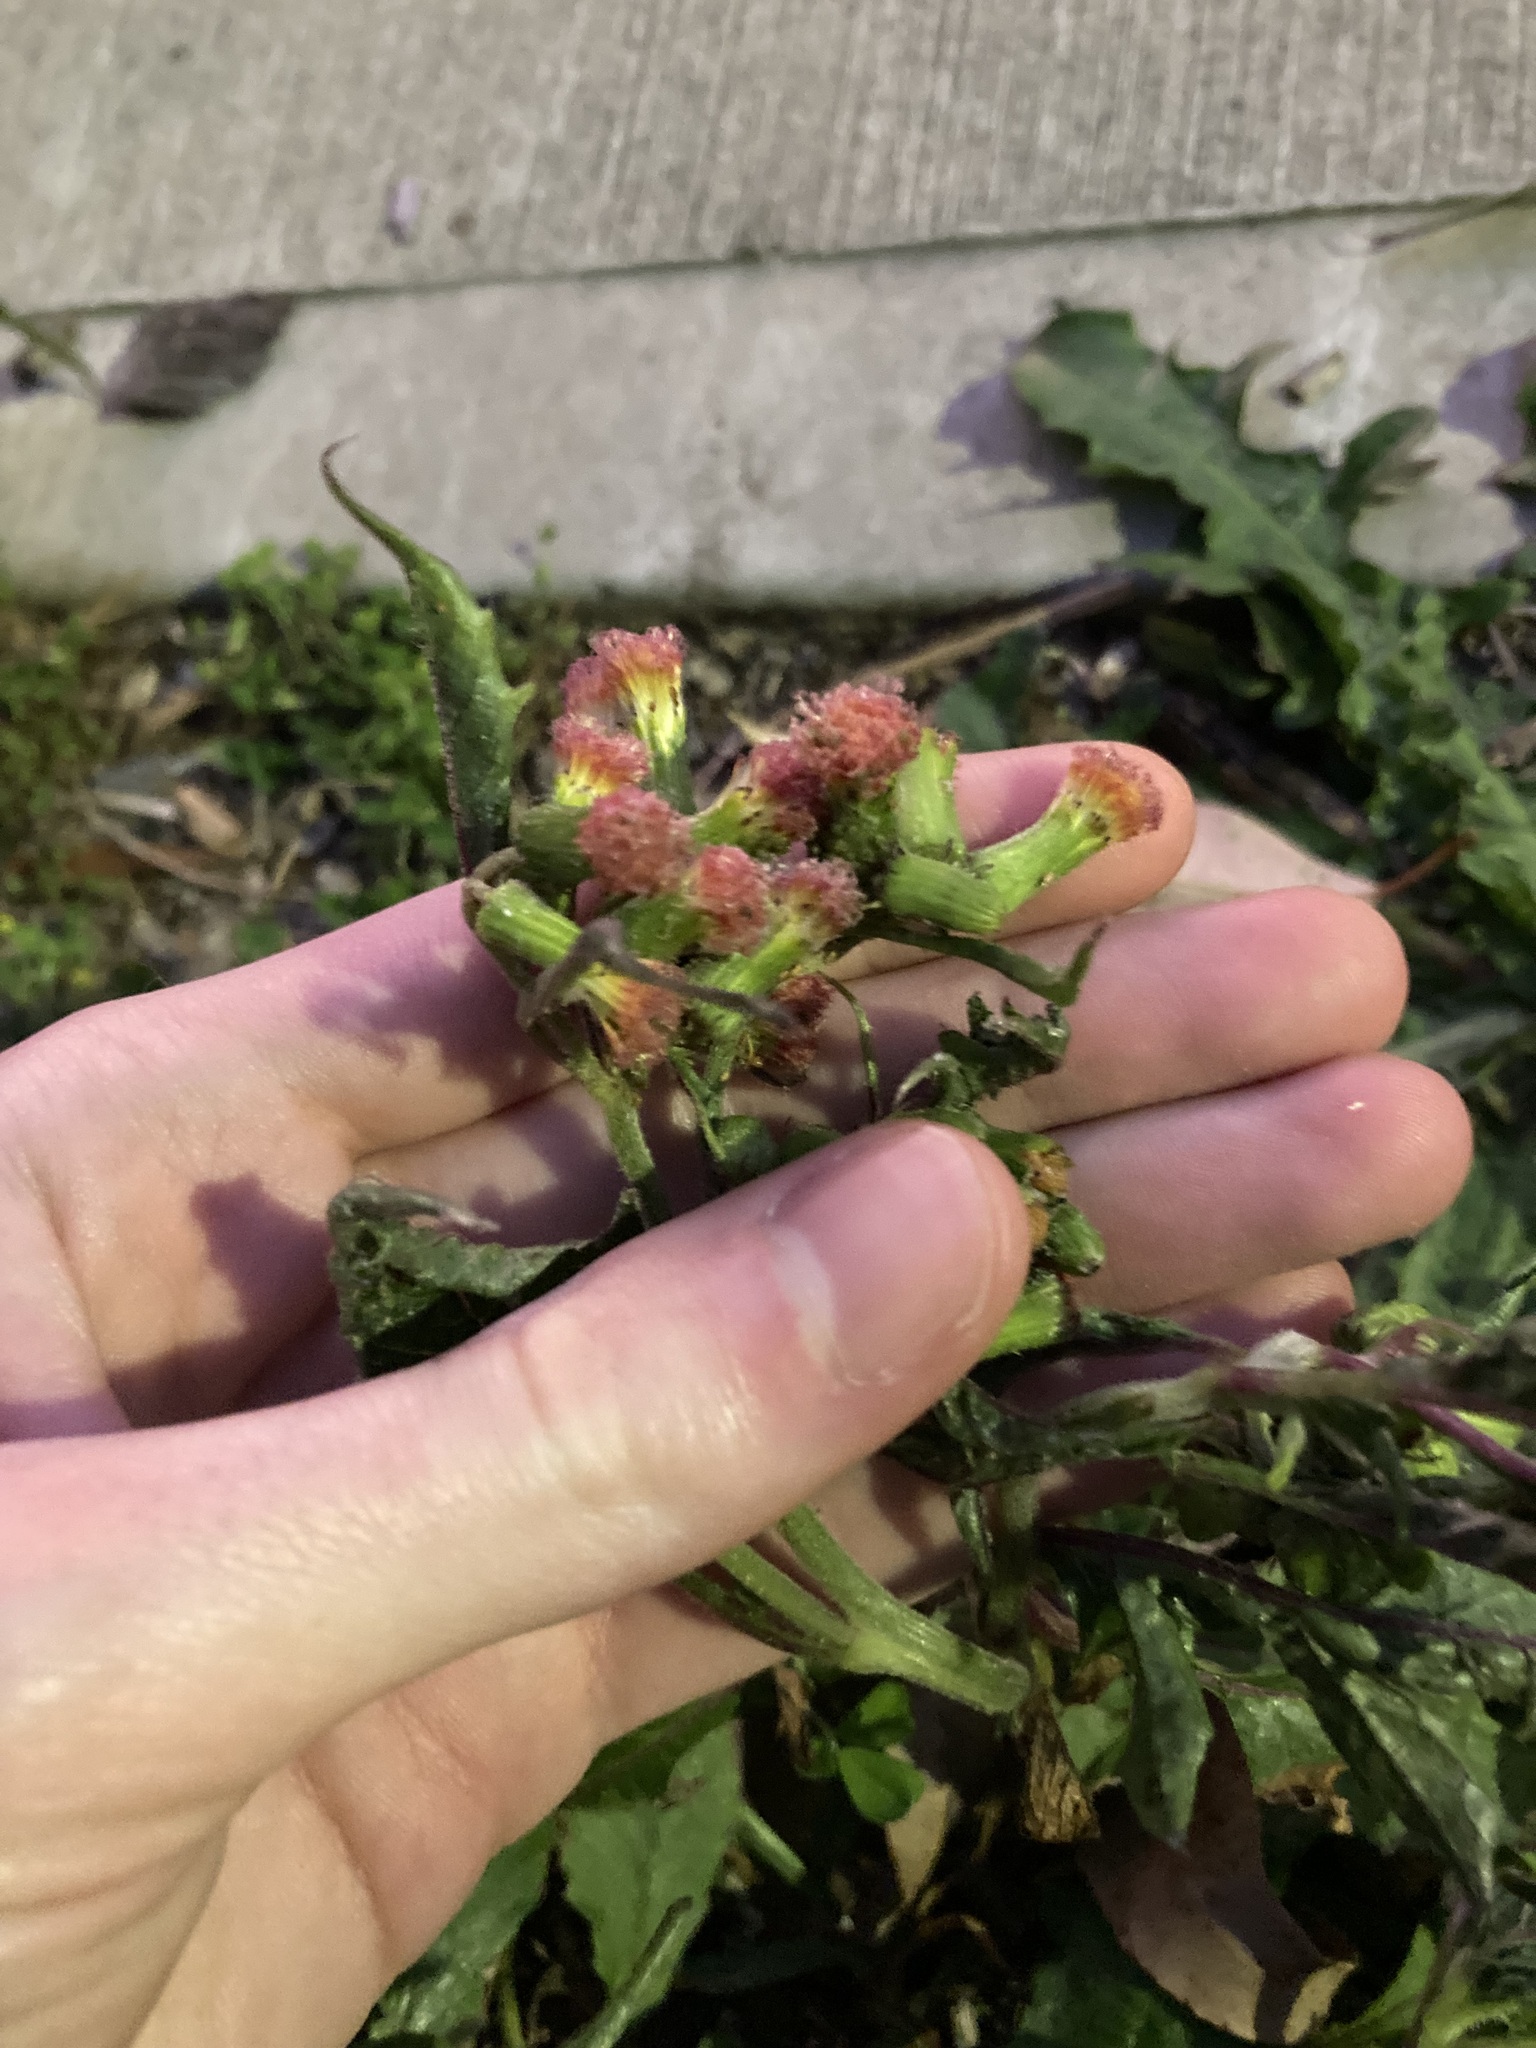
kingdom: Plantae
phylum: Tracheophyta
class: Magnoliopsida
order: Asterales
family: Asteraceae
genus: Crassocephalum
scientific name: Crassocephalum crepidioides
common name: Redflower ragleaf
